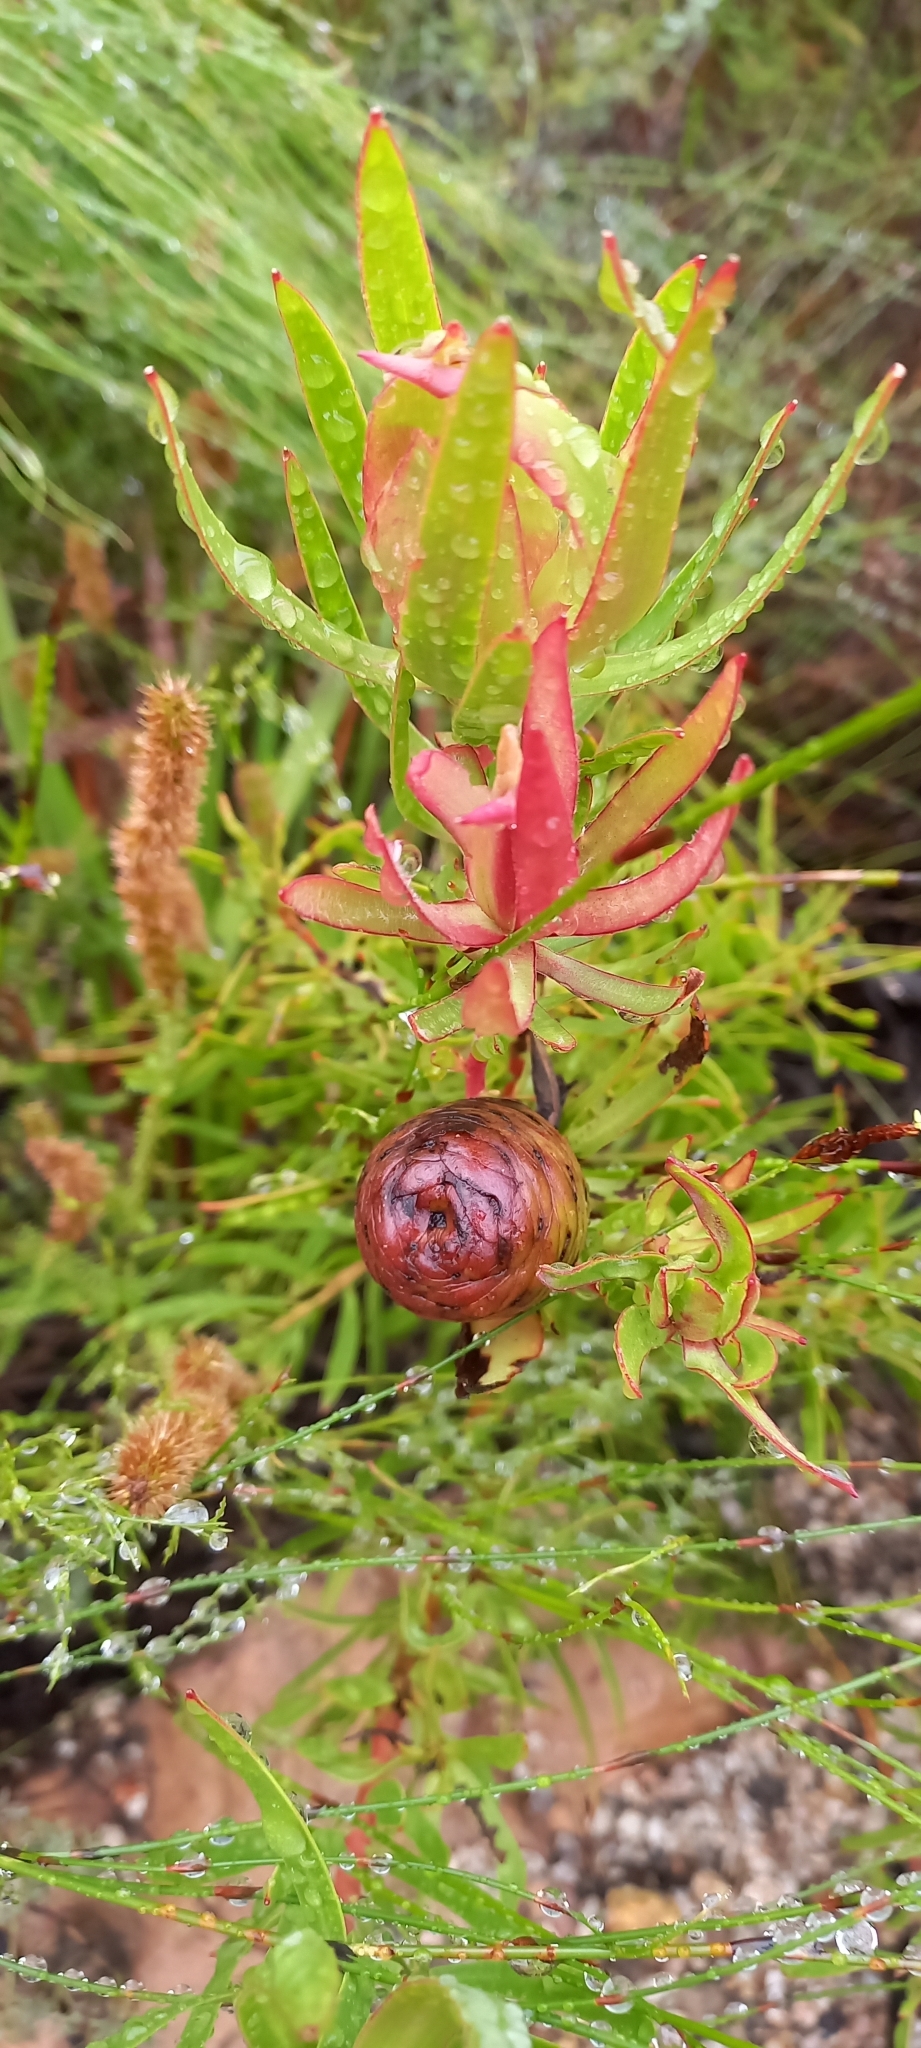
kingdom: Plantae
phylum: Tracheophyta
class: Magnoliopsida
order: Proteales
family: Proteaceae
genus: Leucadendron
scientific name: Leucadendron spissifolium
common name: Spear-leaf conebush
